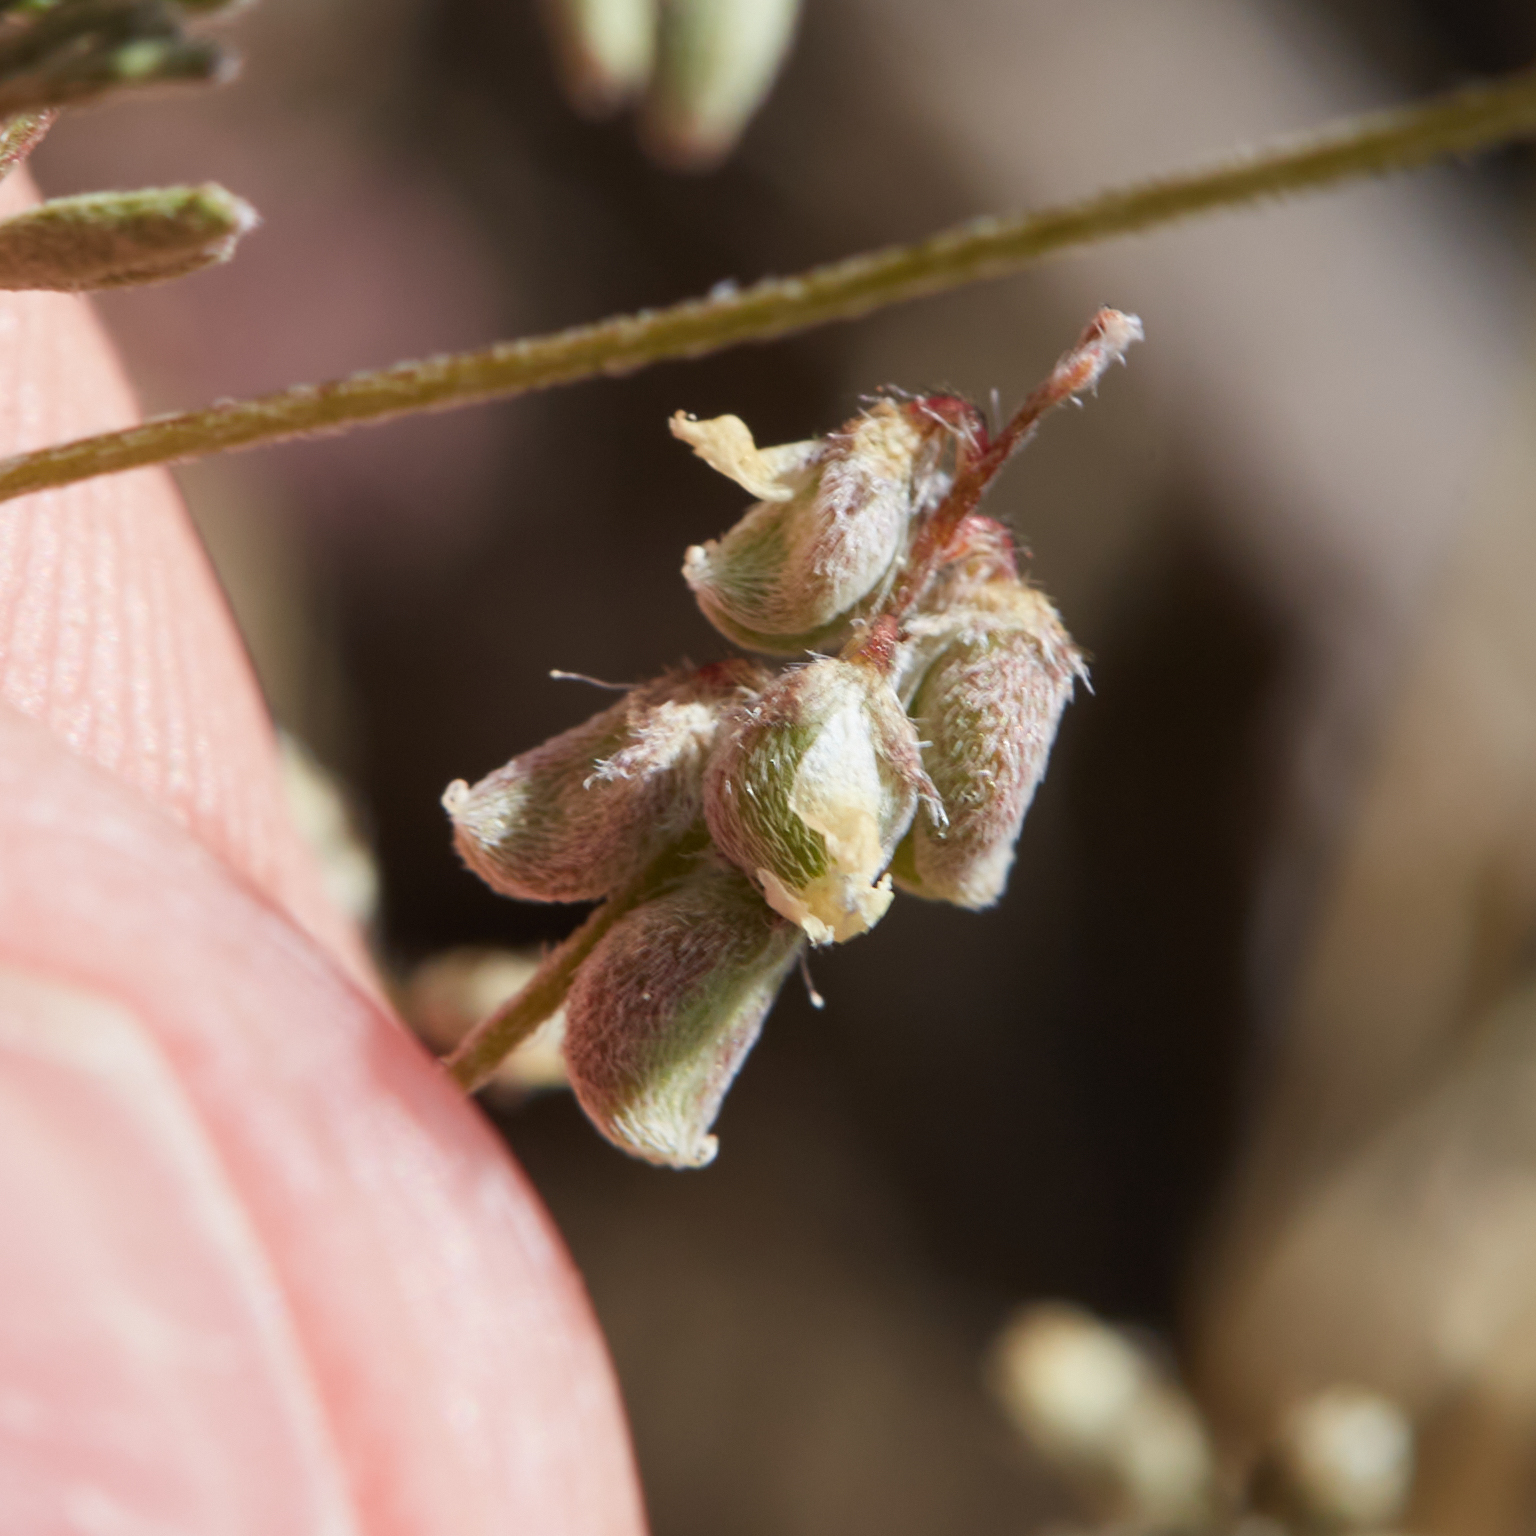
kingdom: Plantae
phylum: Tracheophyta
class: Magnoliopsida
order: Fabales
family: Fabaceae
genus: Astragalus
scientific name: Astragalus gambelianus
